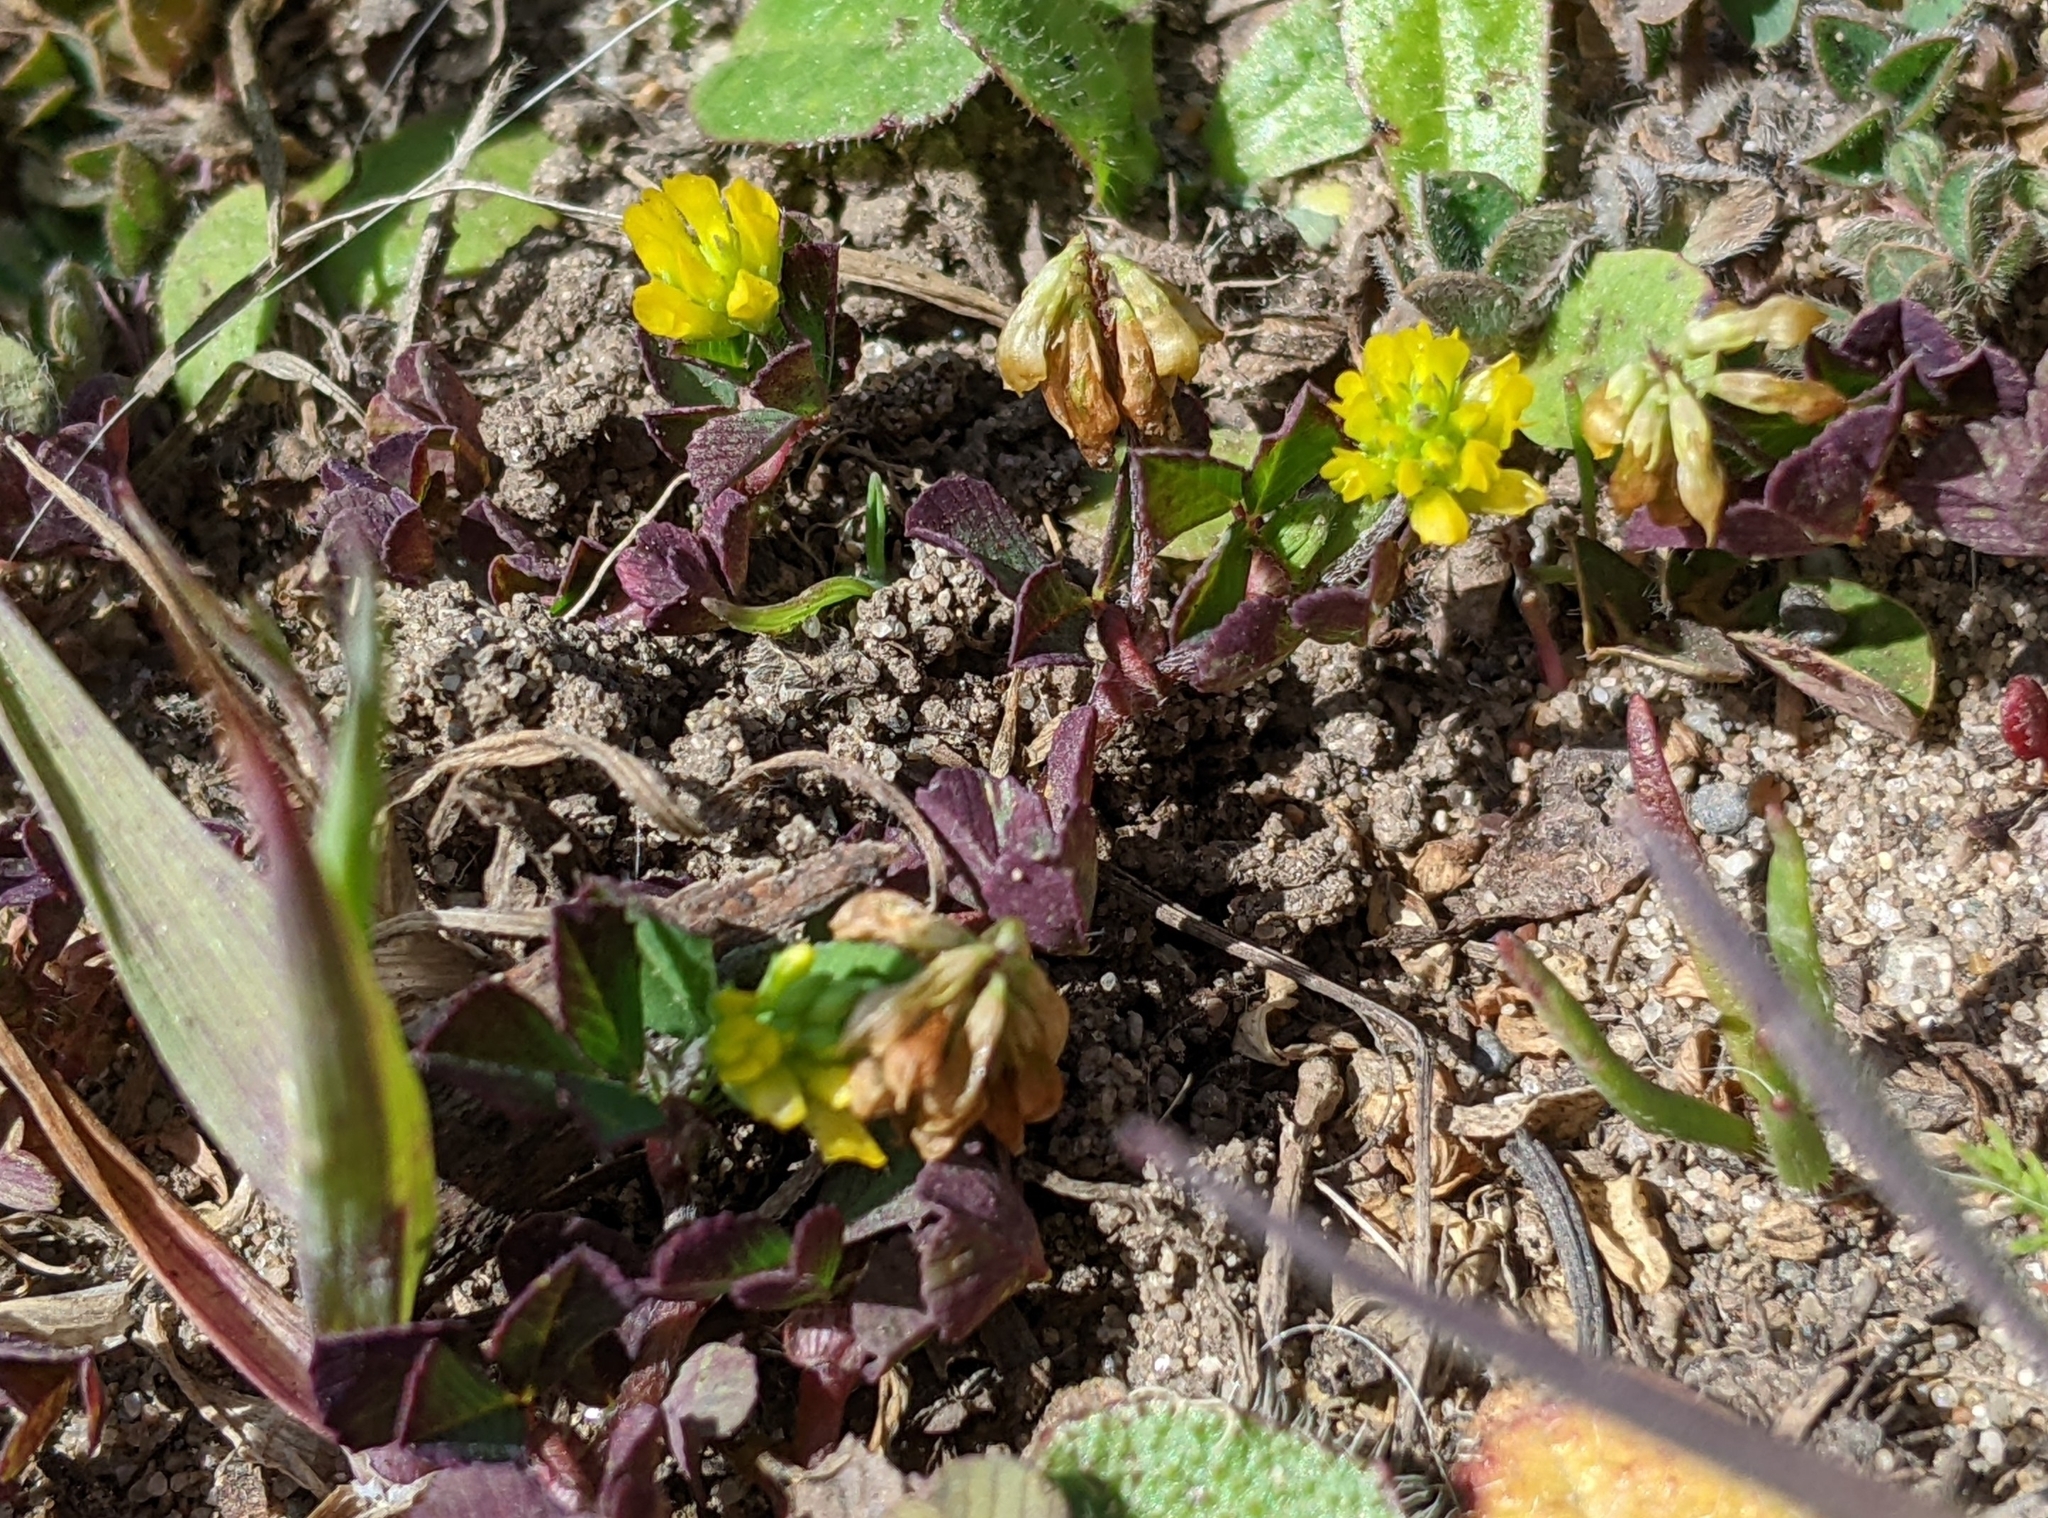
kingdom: Plantae
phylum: Tracheophyta
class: Magnoliopsida
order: Fabales
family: Fabaceae
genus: Trifolium
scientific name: Trifolium dubium
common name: Suckling clover
